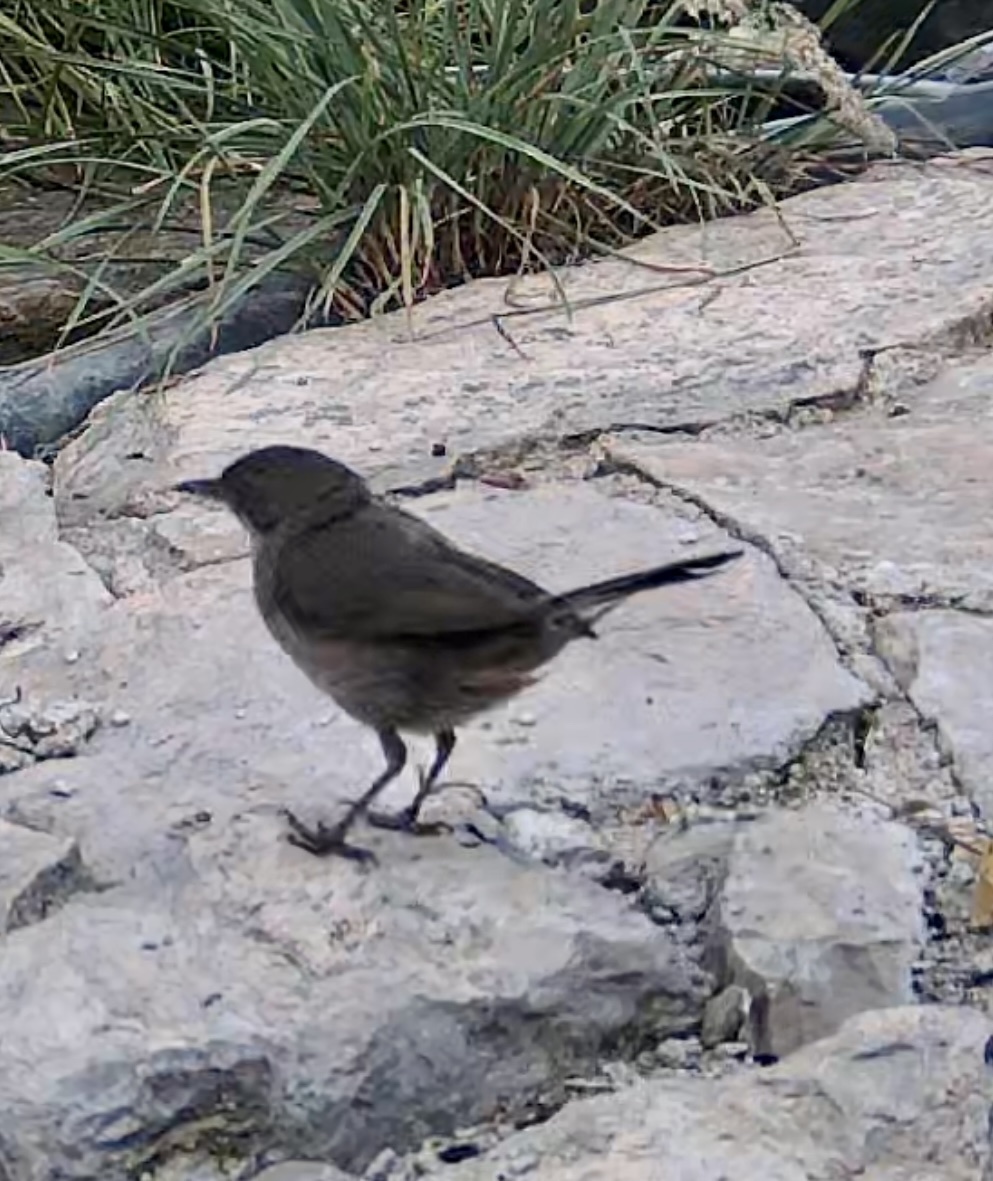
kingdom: Animalia
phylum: Chordata
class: Aves
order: Passeriformes
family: Sylviidae
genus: Curruca
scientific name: Curruca melanocephala
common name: Sardinian warbler
